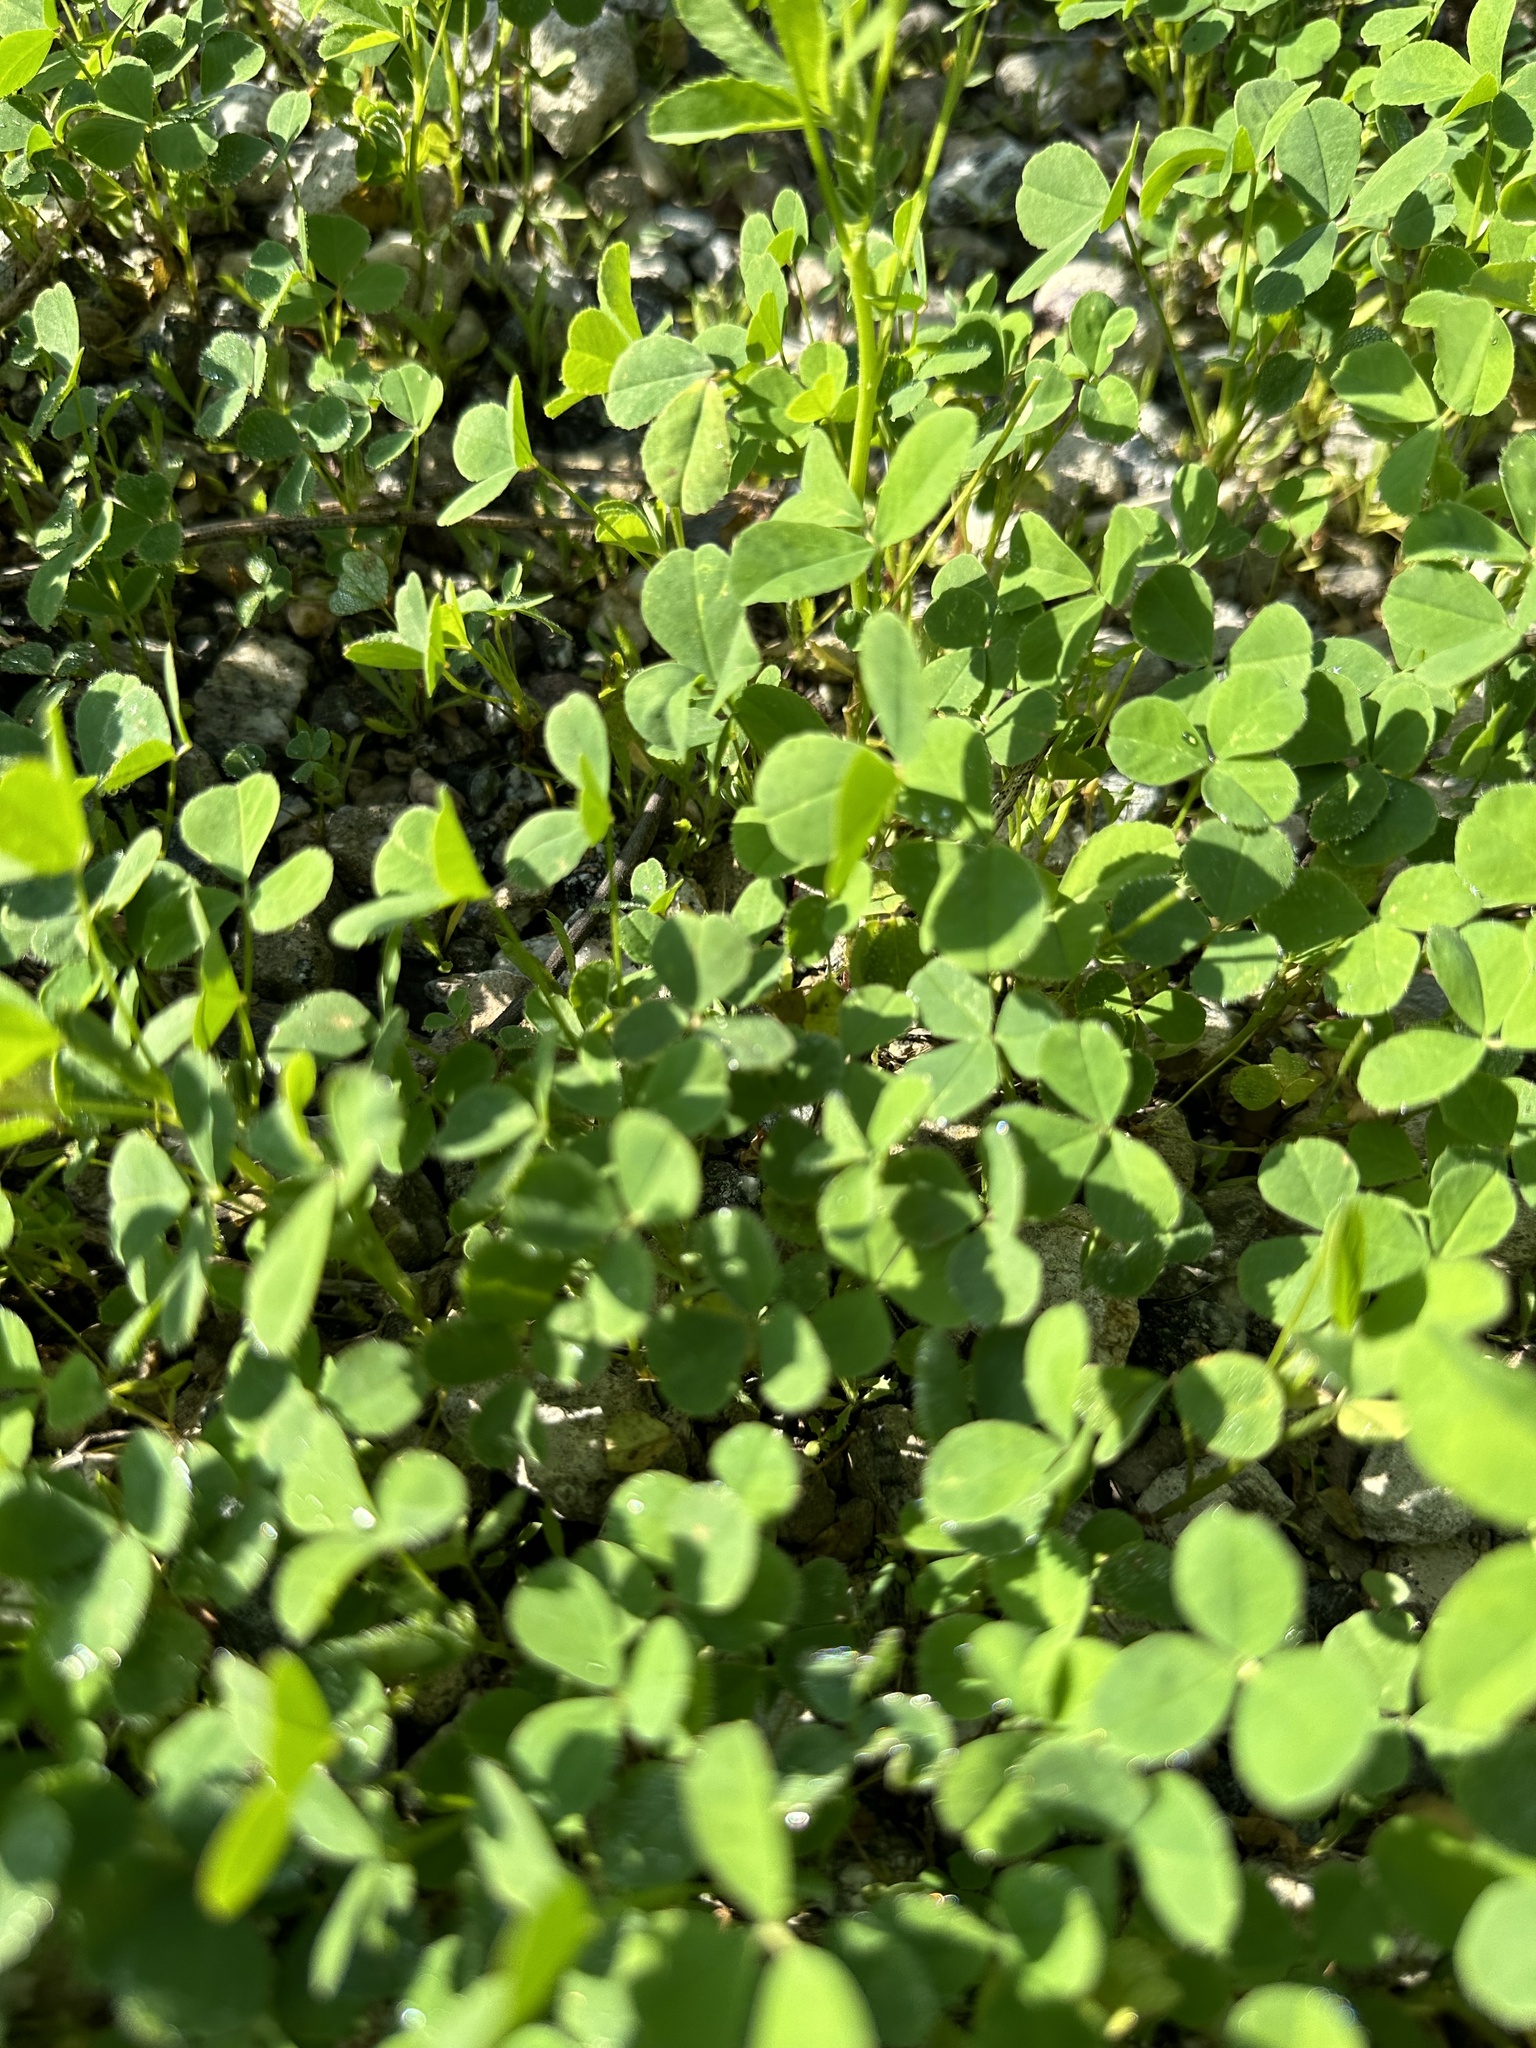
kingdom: Plantae
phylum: Tracheophyta
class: Magnoliopsida
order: Fabales
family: Fabaceae
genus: Medicago
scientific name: Medicago polymorpha
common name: Burclover
